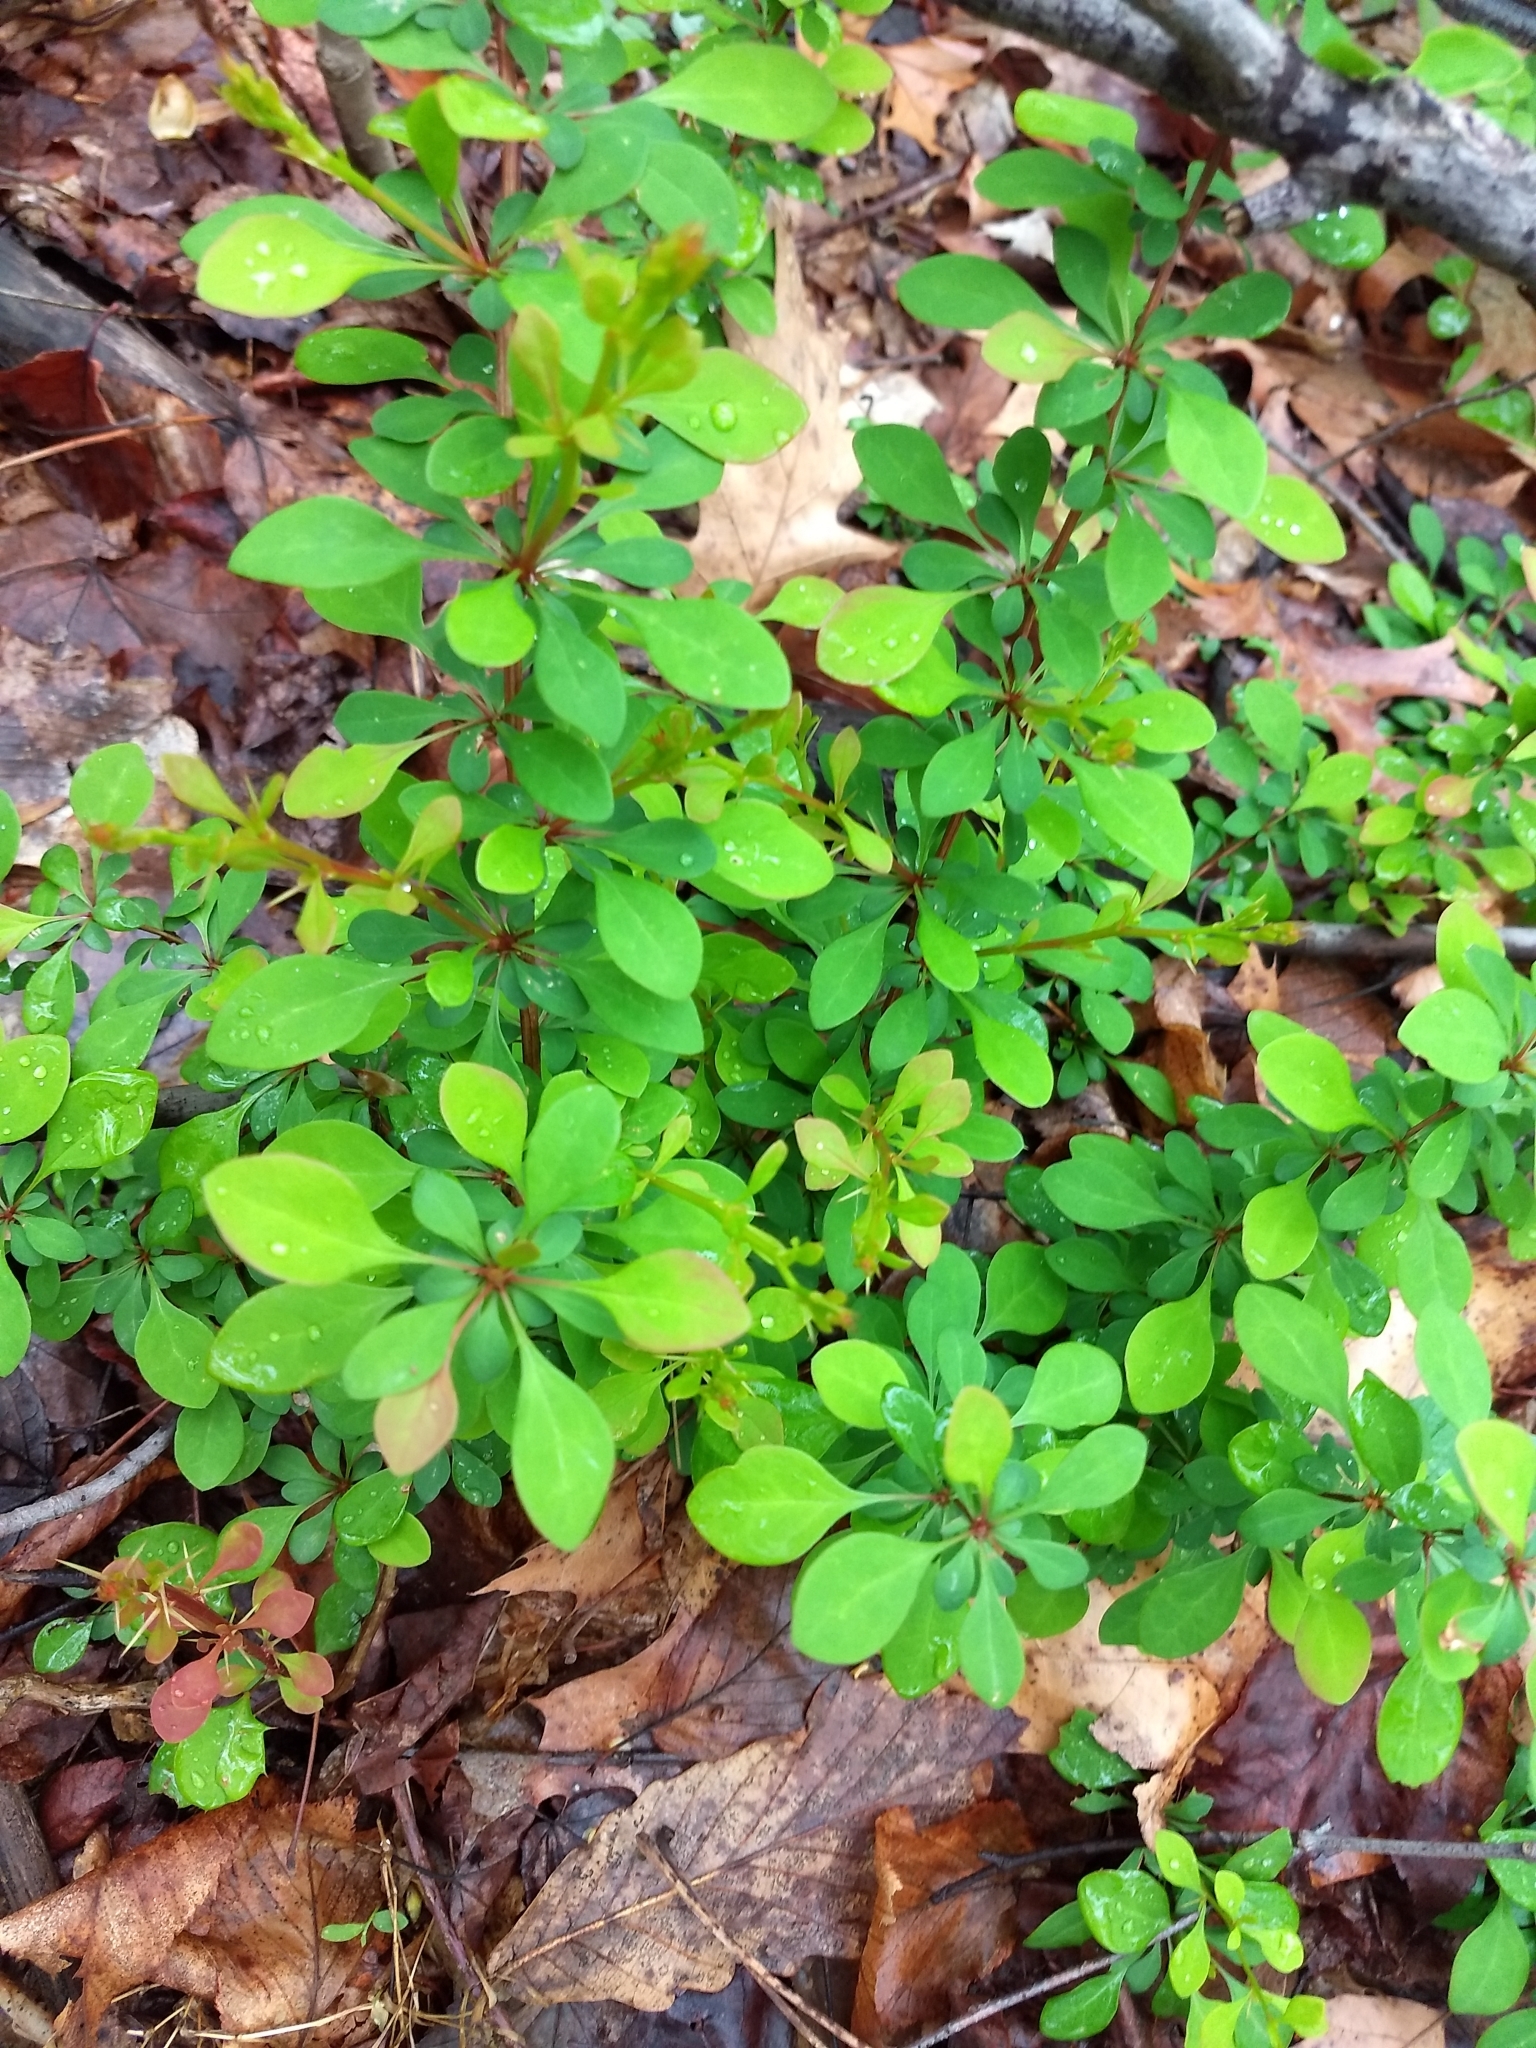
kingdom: Plantae
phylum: Tracheophyta
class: Magnoliopsida
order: Ranunculales
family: Berberidaceae
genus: Berberis
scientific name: Berberis thunbergii
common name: Japanese barberry
